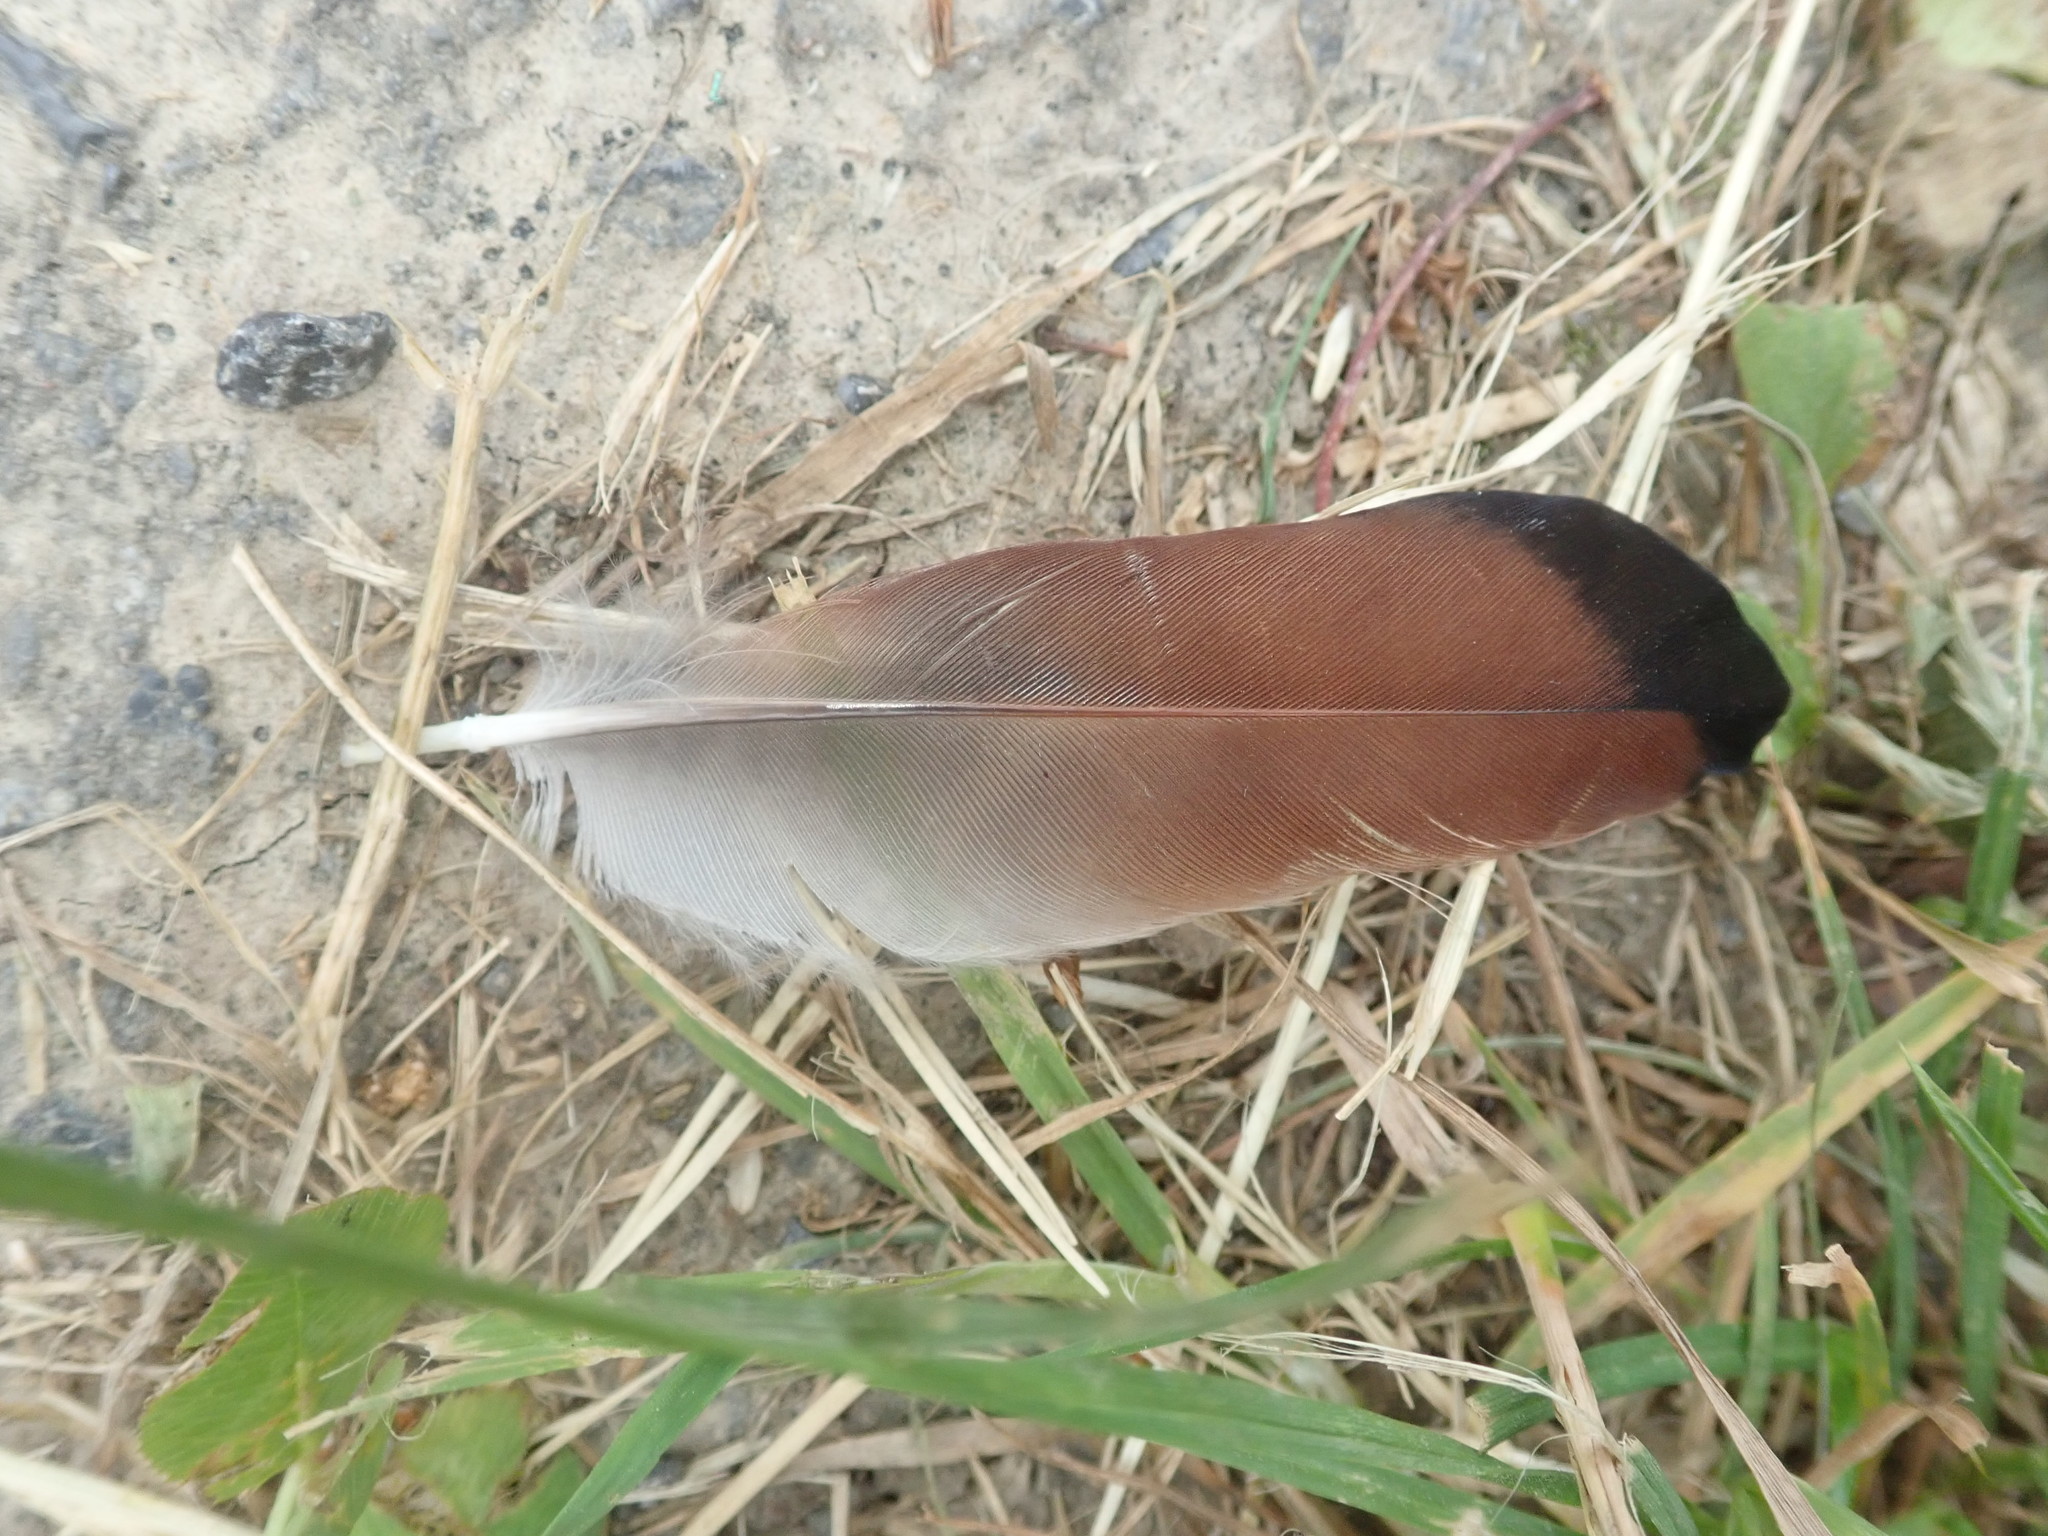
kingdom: Animalia
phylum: Chordata
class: Aves
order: Passeriformes
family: Corvidae
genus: Garrulus
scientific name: Garrulus glandarius
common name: Eurasian jay
